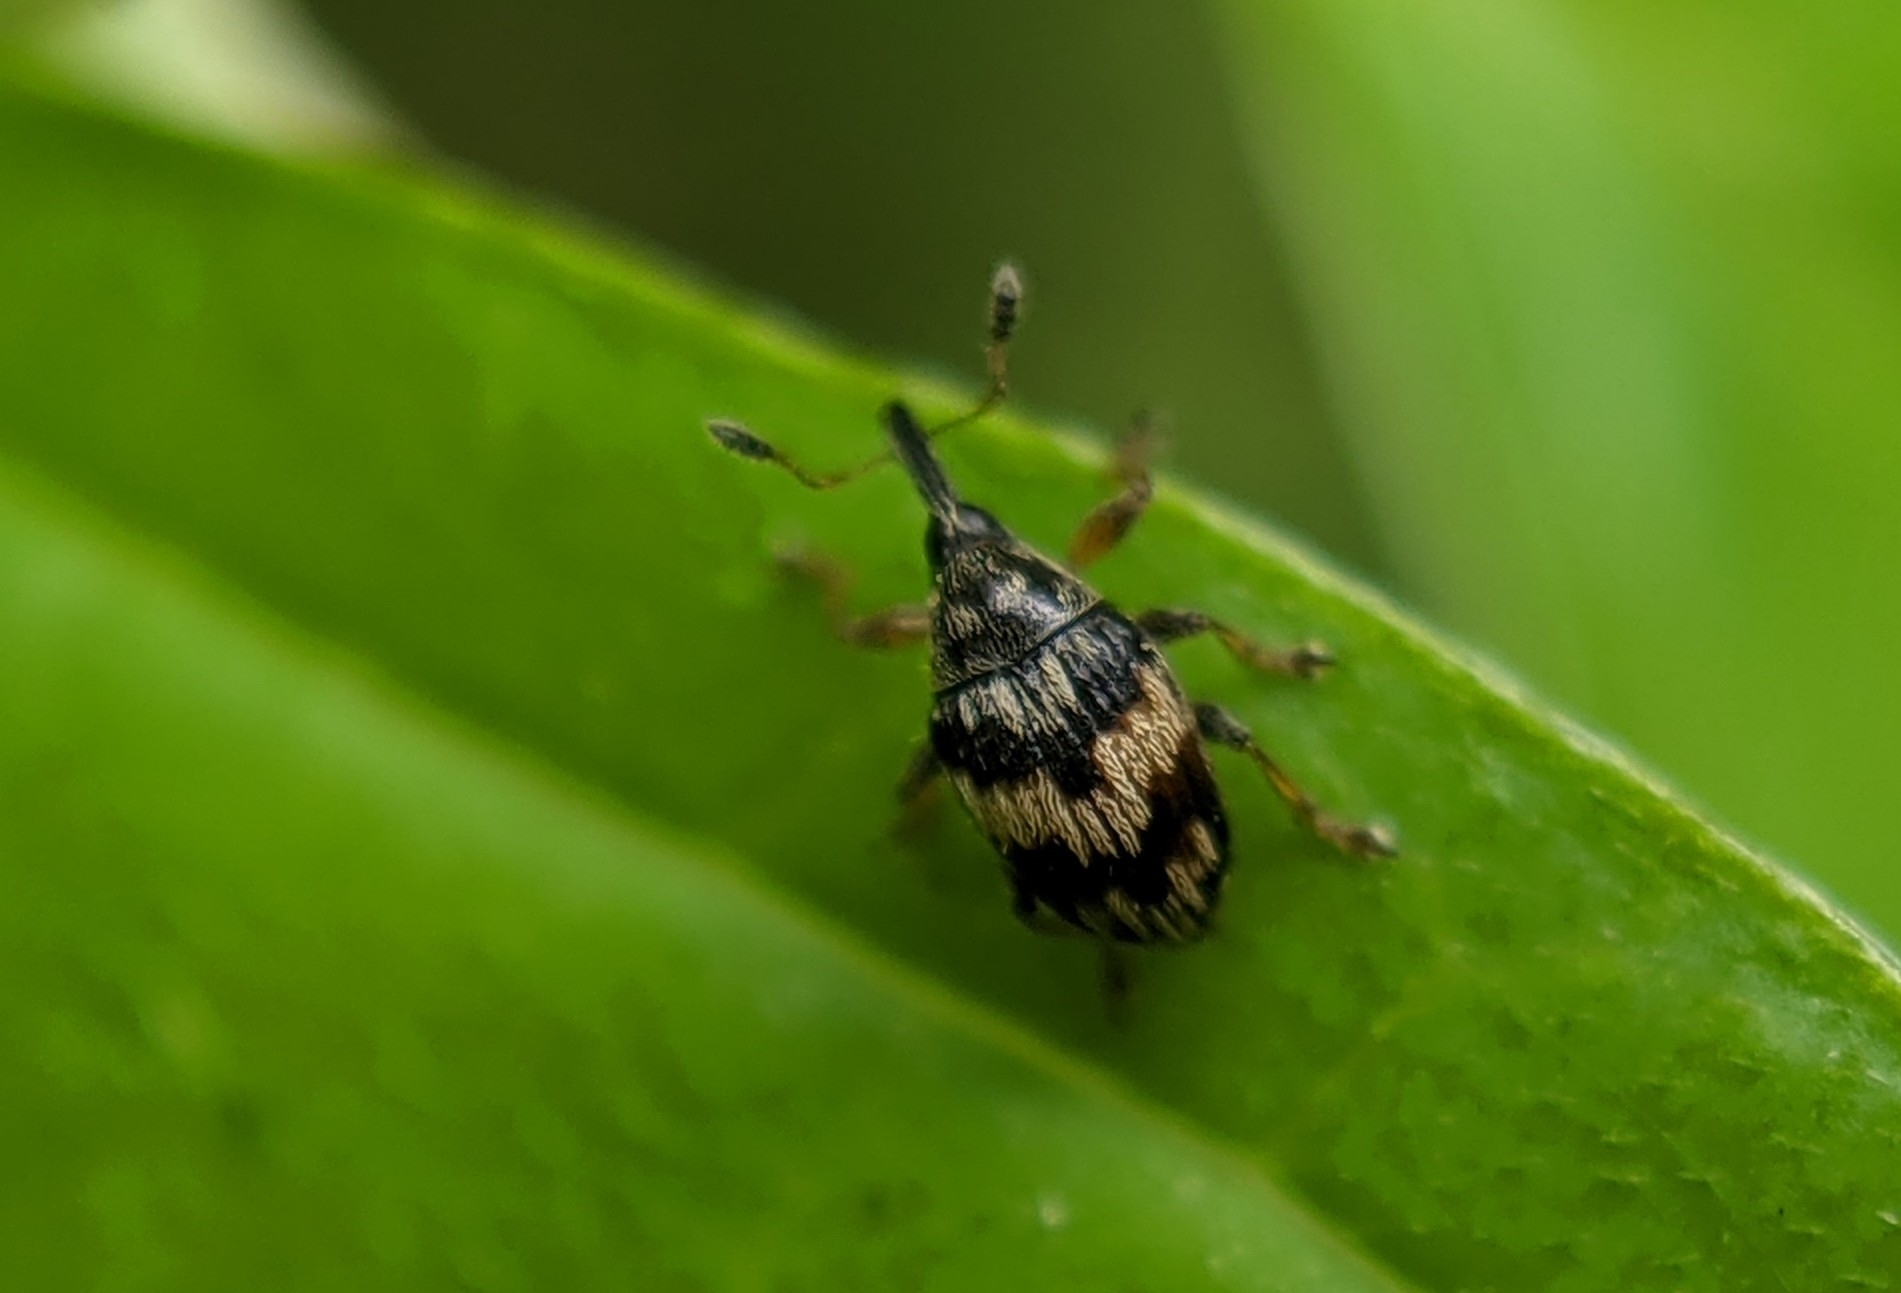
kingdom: Animalia
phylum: Arthropoda
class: Insecta
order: Coleoptera
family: Brentidae
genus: Nanophyes
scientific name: Nanophyes marmoratus
